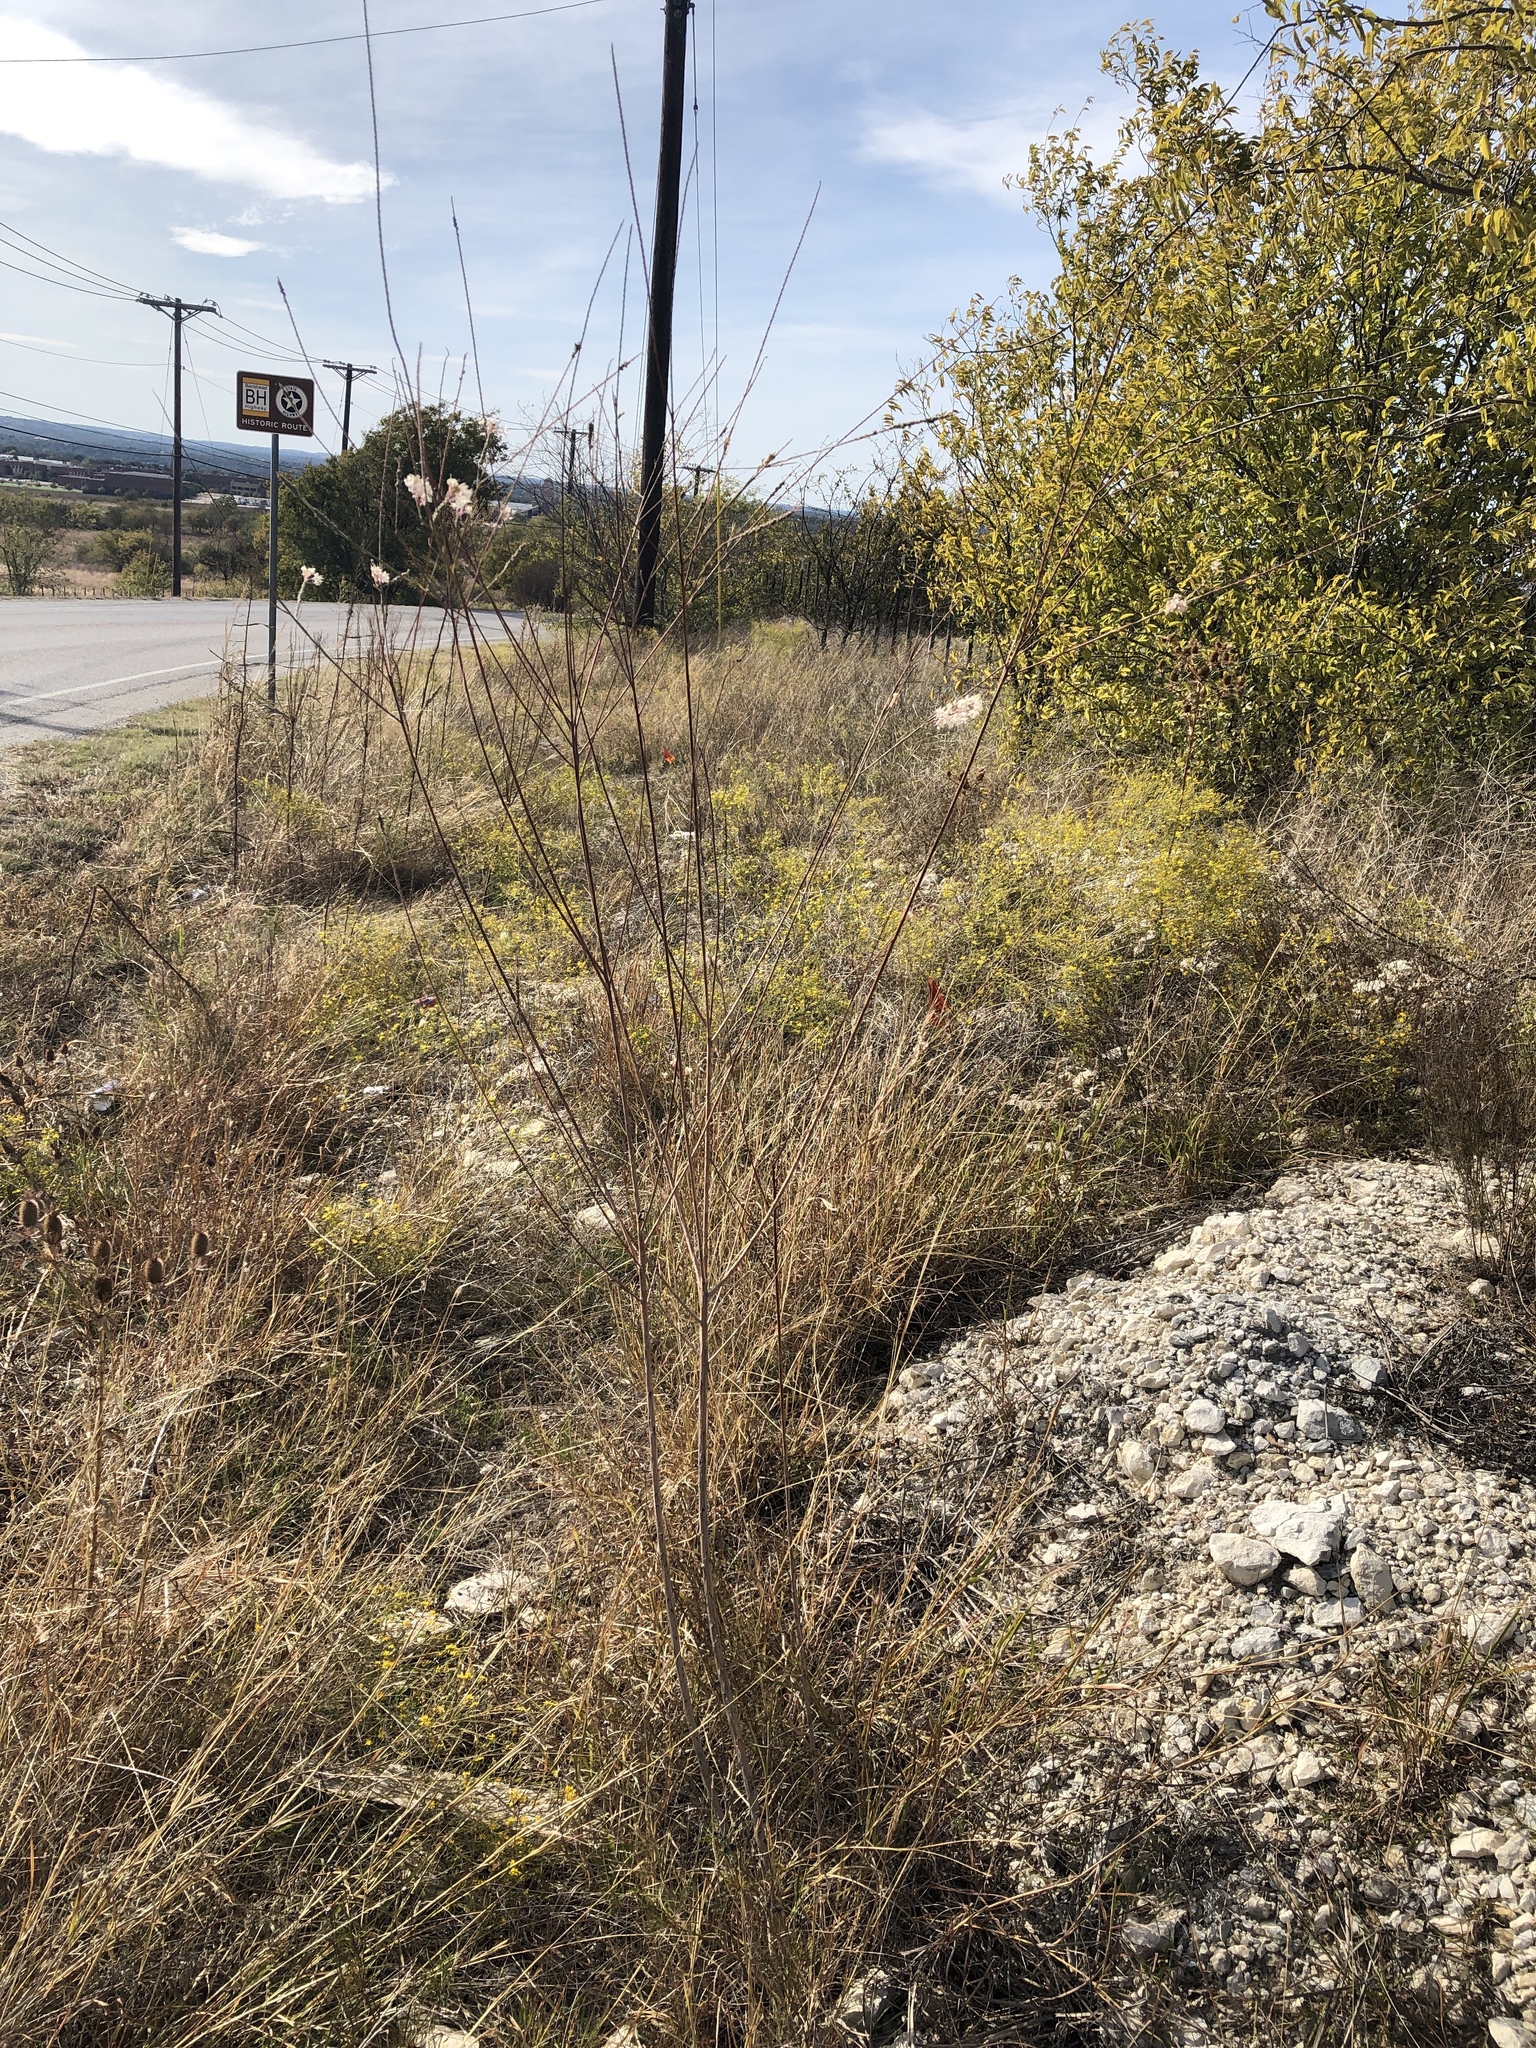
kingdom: Plantae
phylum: Tracheophyta
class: Magnoliopsida
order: Myrtales
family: Onagraceae
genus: Oenothera
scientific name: Oenothera glaucifolia
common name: False gaura
